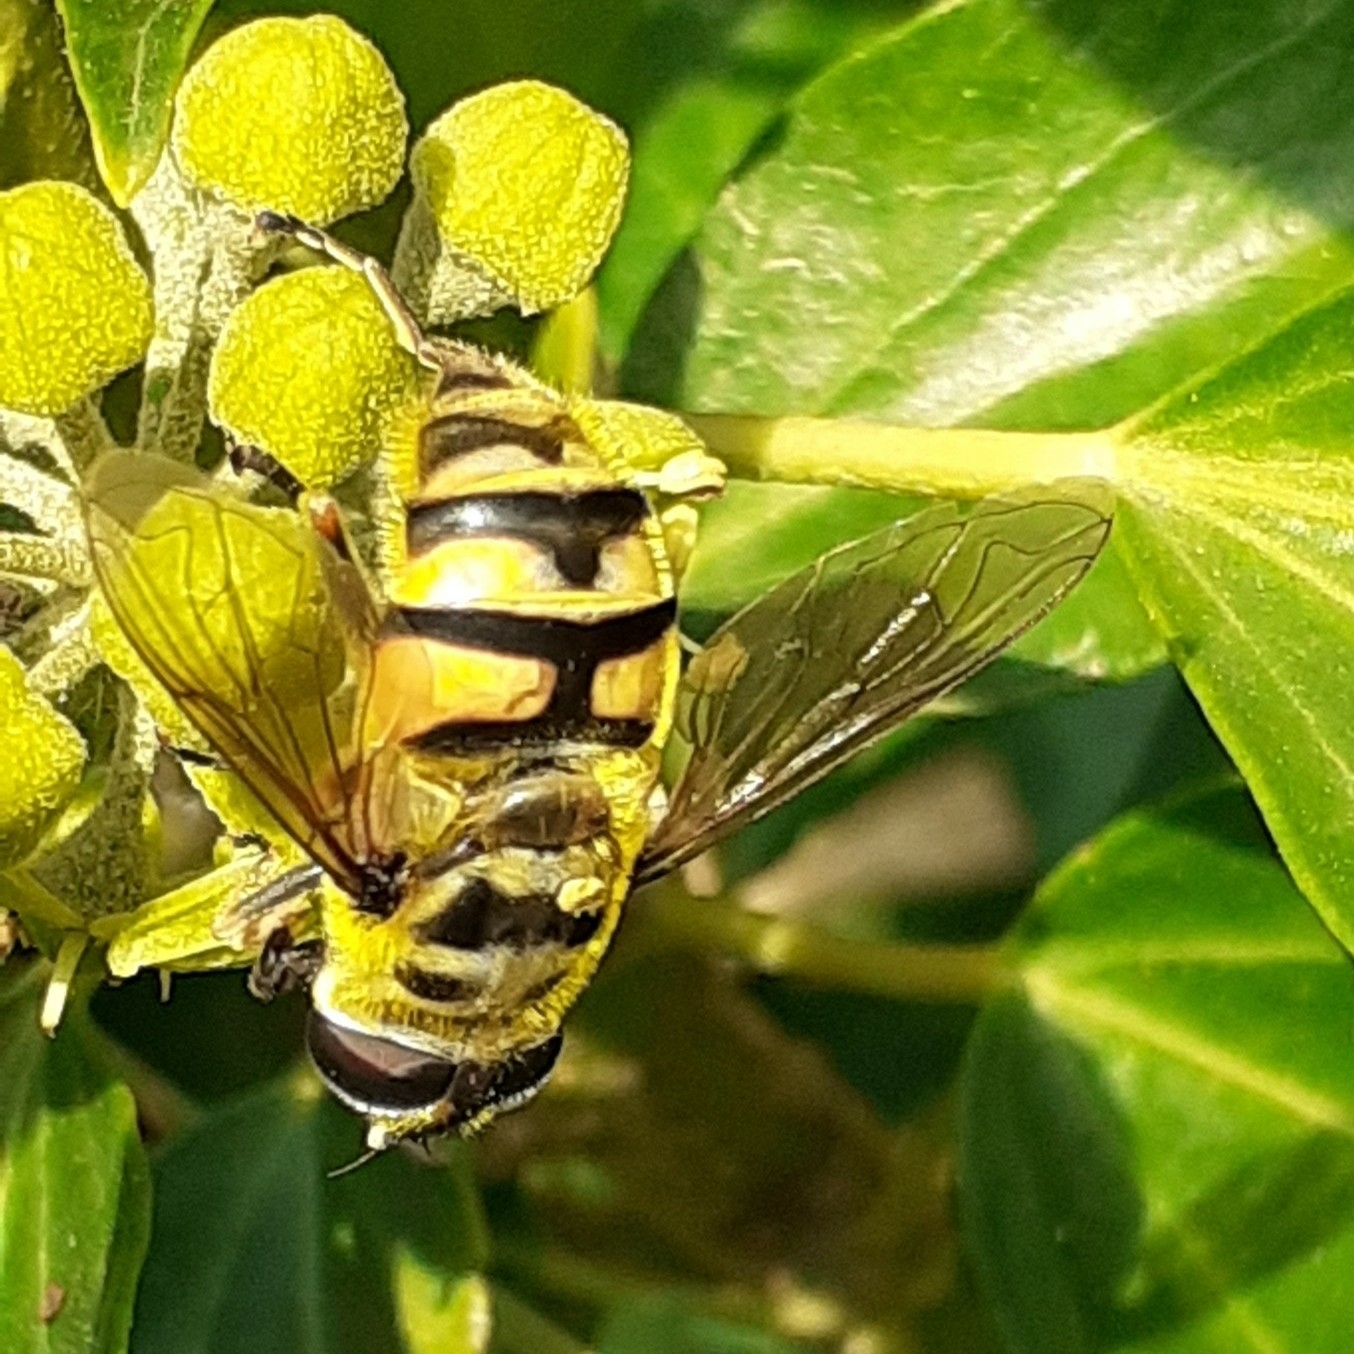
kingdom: Animalia
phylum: Arthropoda
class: Insecta
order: Diptera
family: Syrphidae
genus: Myathropa
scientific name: Myathropa florea
